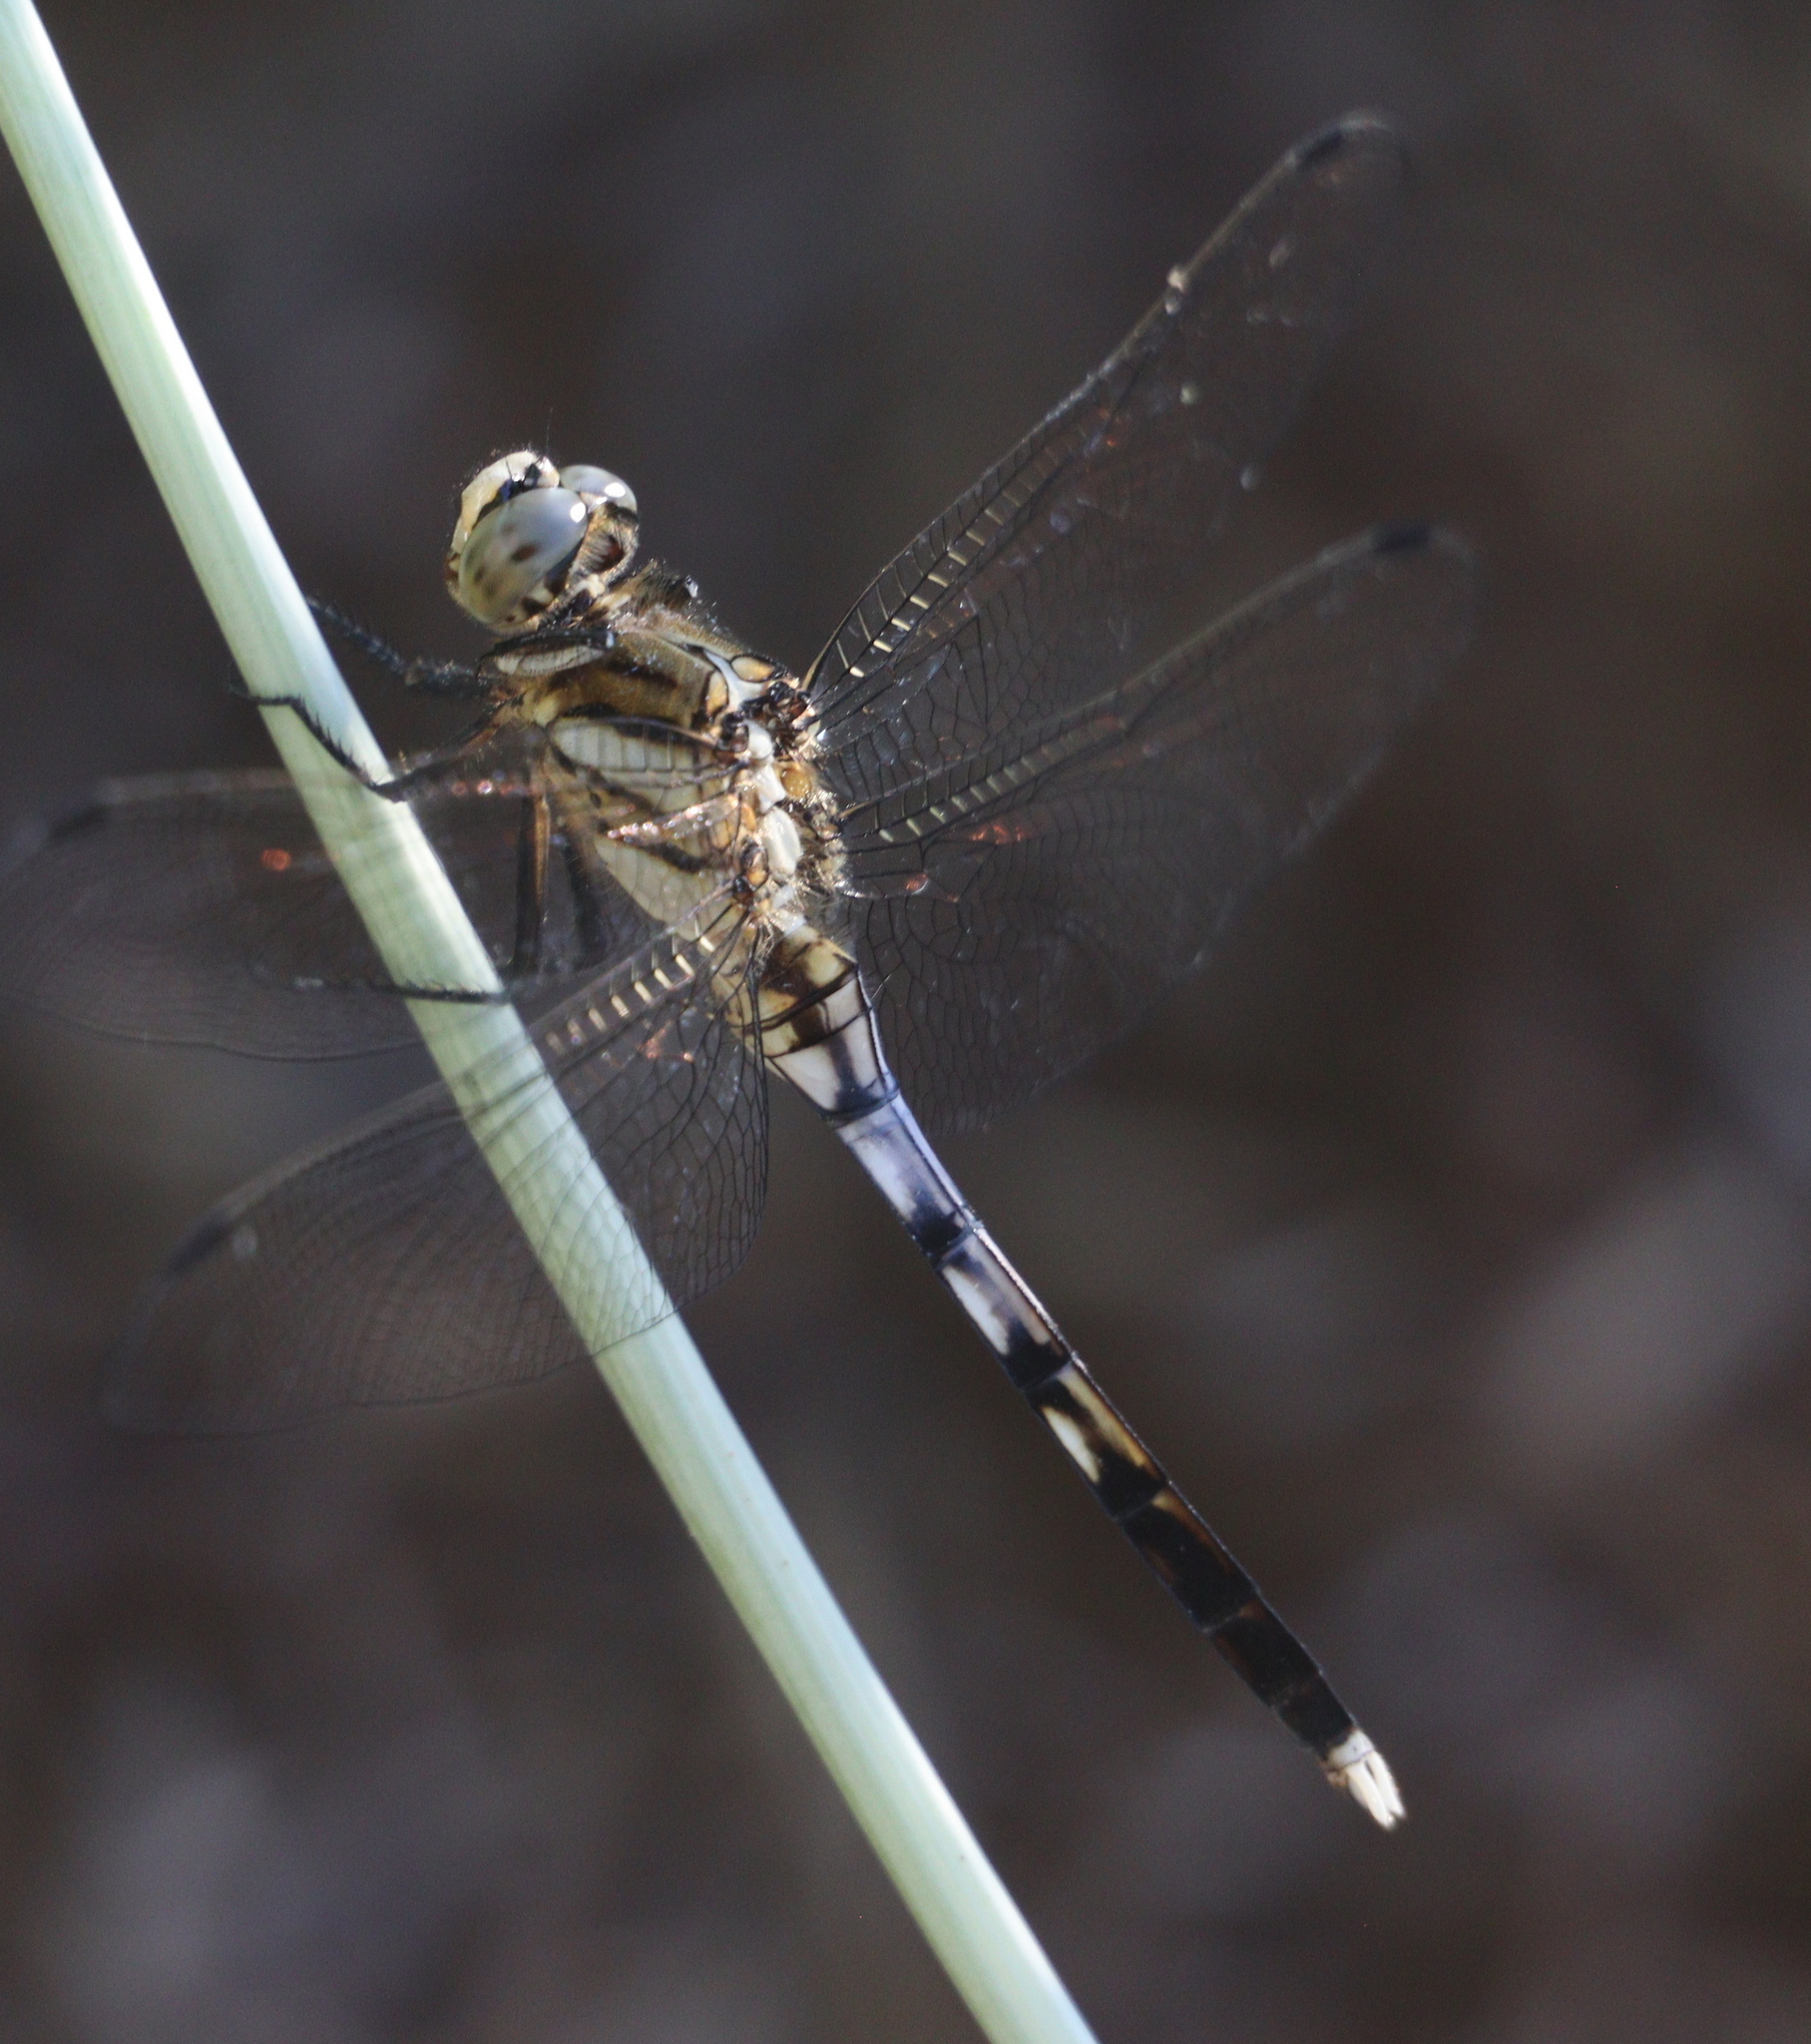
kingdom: Animalia
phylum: Arthropoda
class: Insecta
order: Odonata
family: Libellulidae
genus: Orthetrum
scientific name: Orthetrum albistylum
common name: White-tailed skimmer
